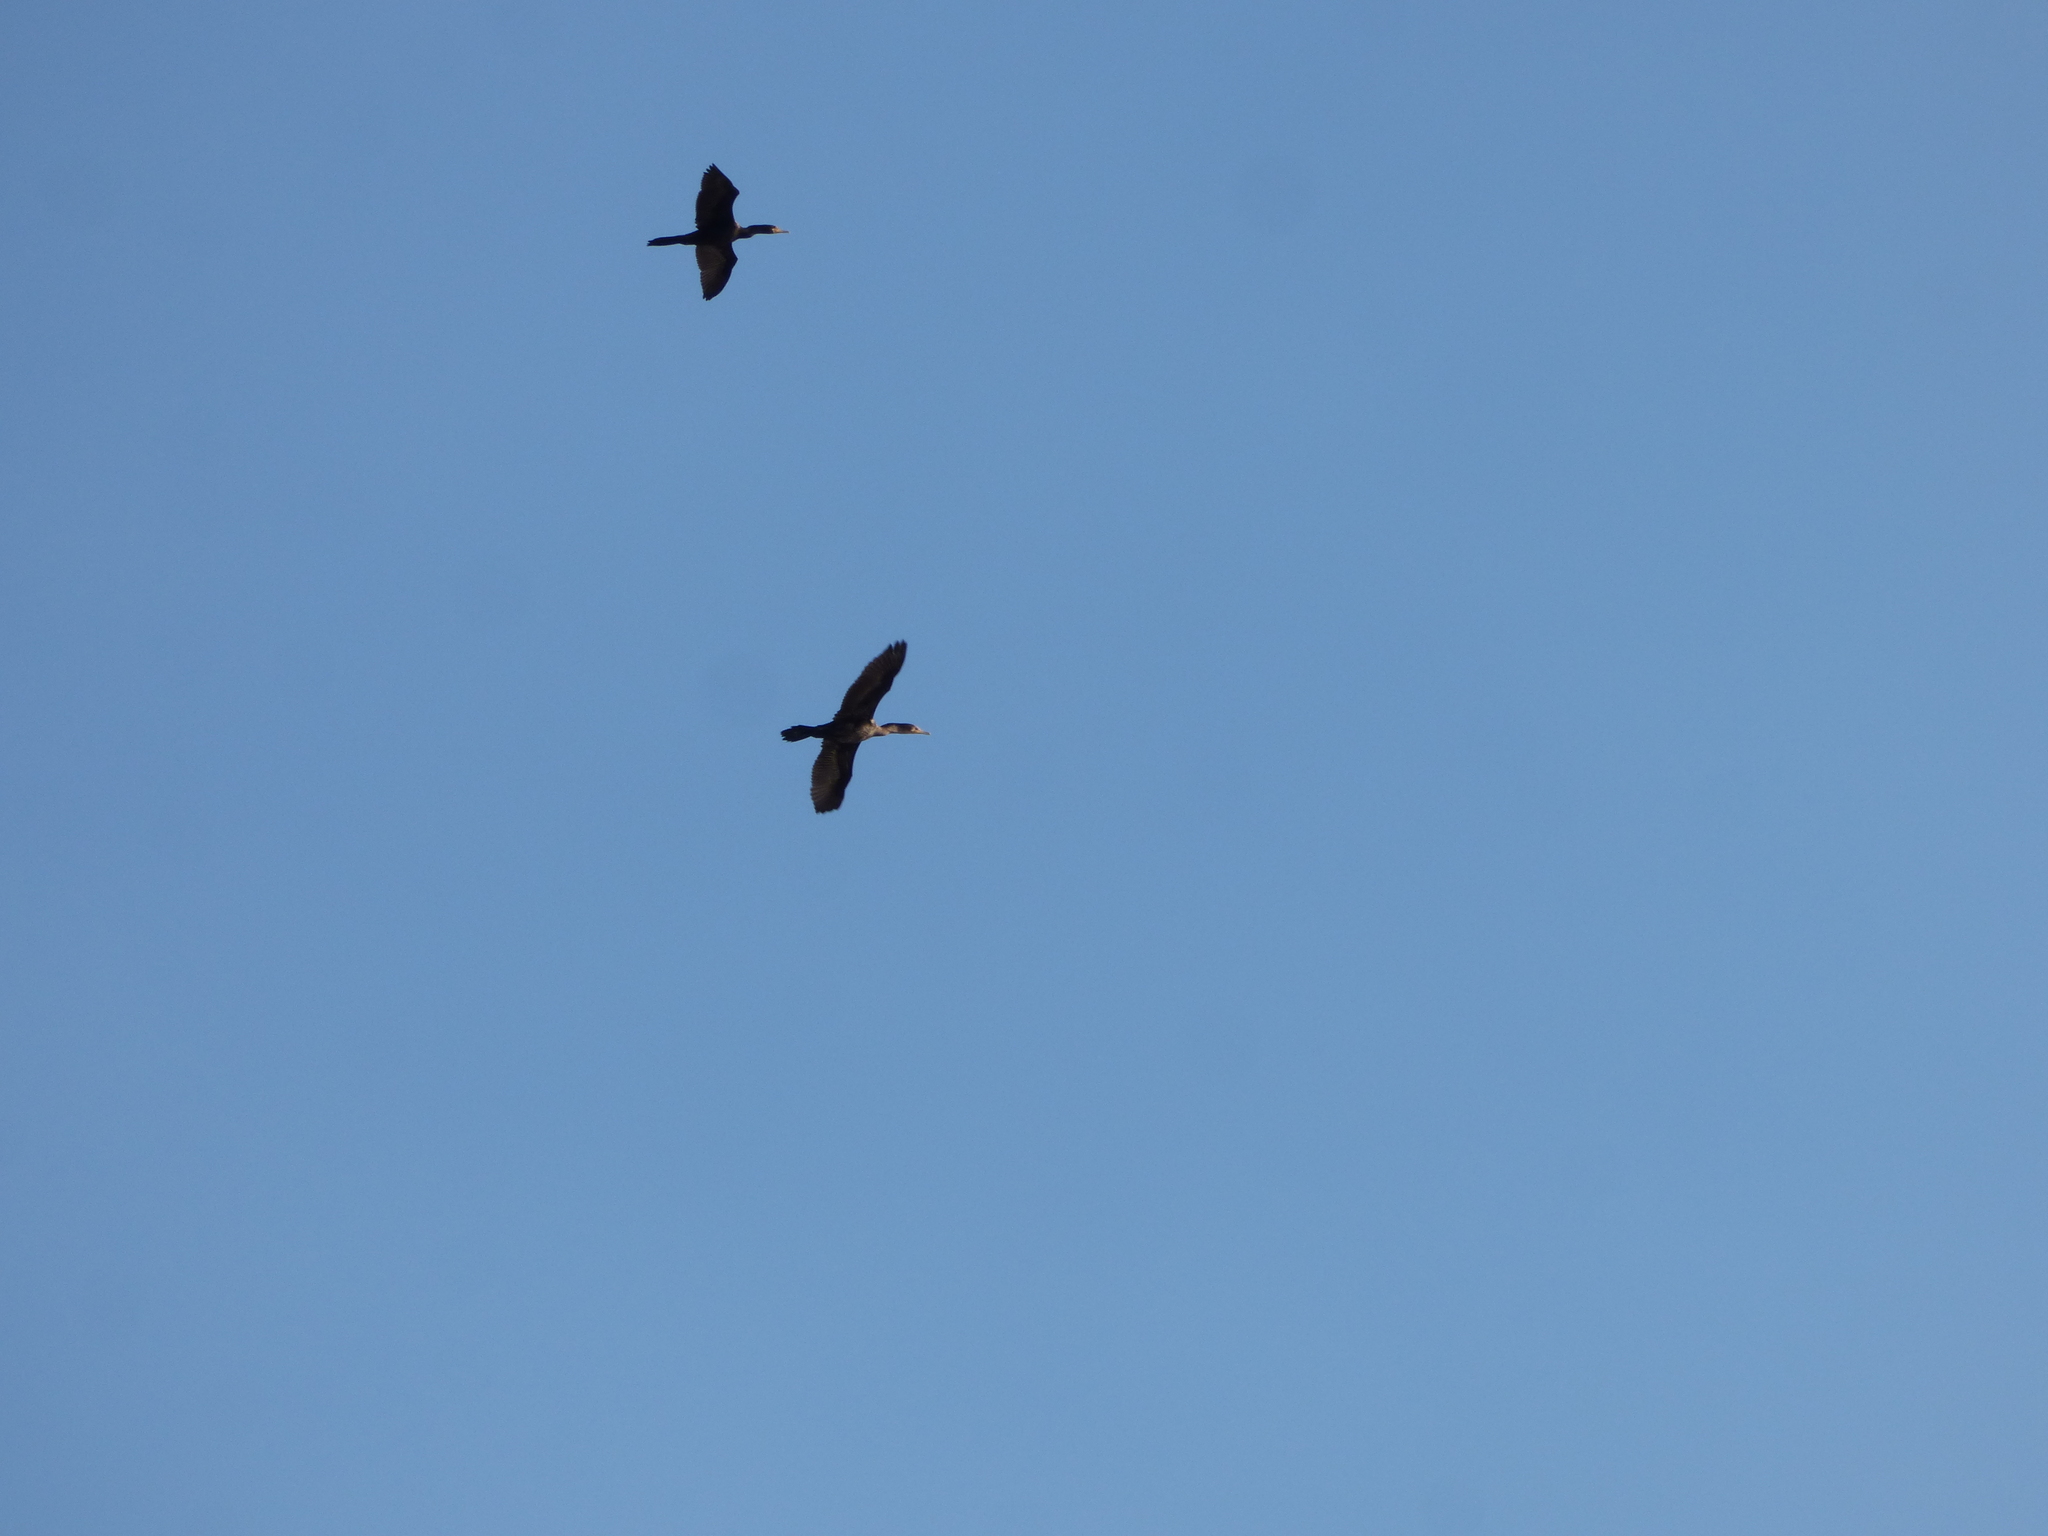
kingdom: Animalia
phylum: Chordata
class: Aves
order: Suliformes
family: Phalacrocoracidae
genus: Phalacrocorax
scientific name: Phalacrocorax brasilianus
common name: Neotropic cormorant
